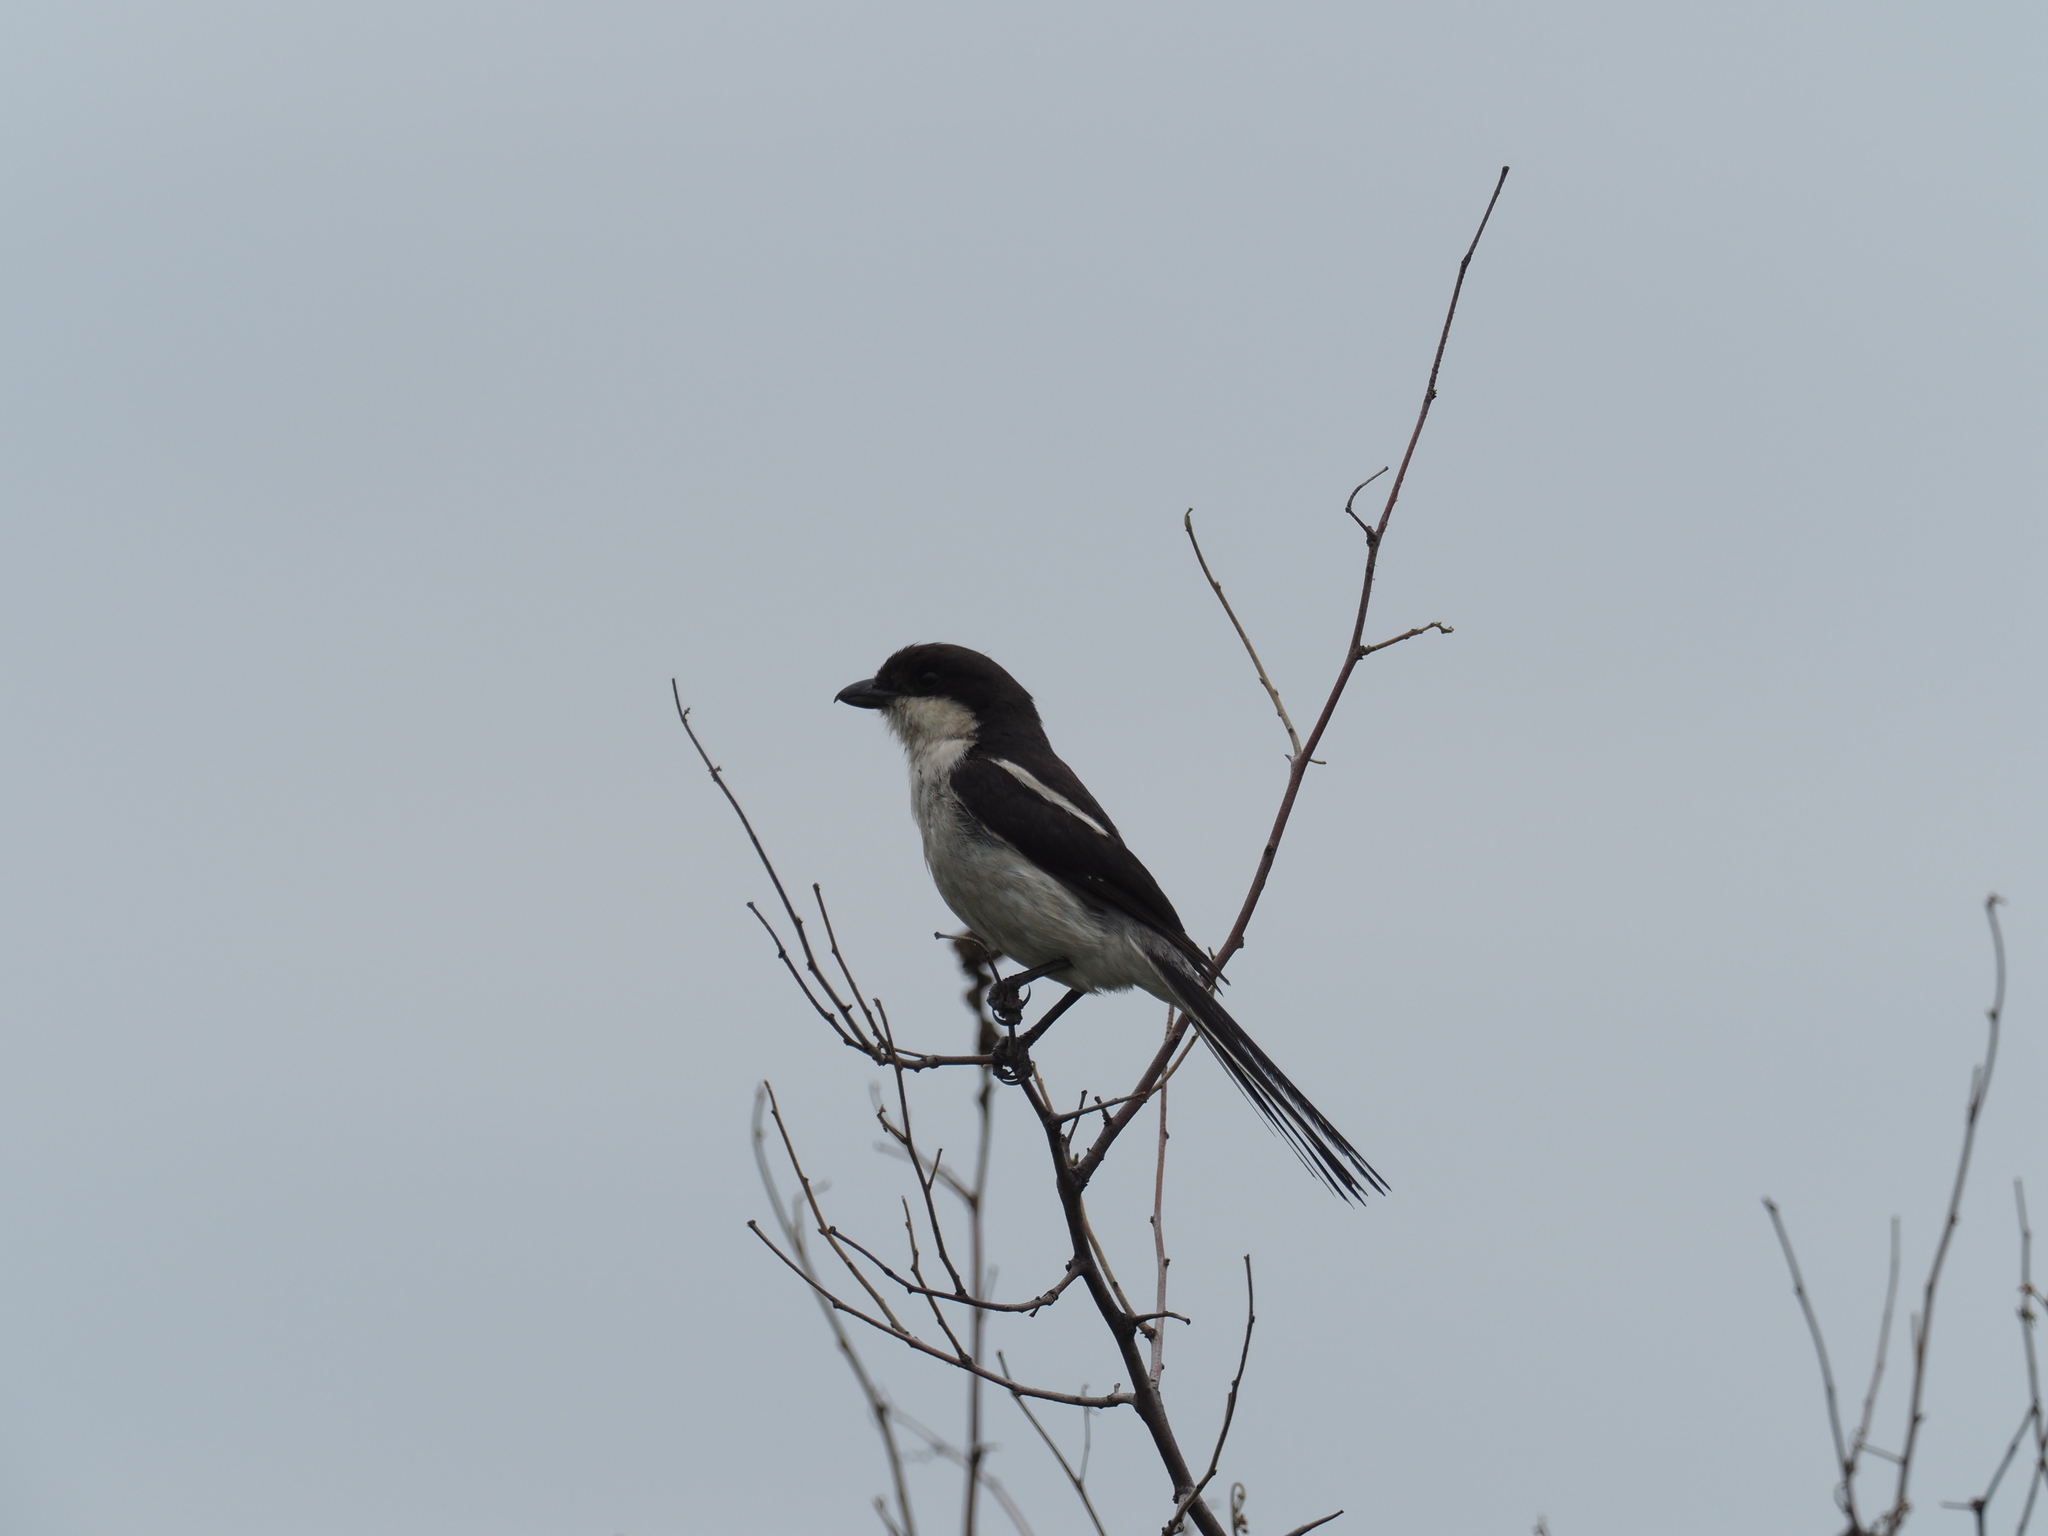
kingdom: Animalia
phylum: Chordata
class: Aves
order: Passeriformes
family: Laniidae
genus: Lanius
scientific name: Lanius collaris
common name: Southern fiscal
